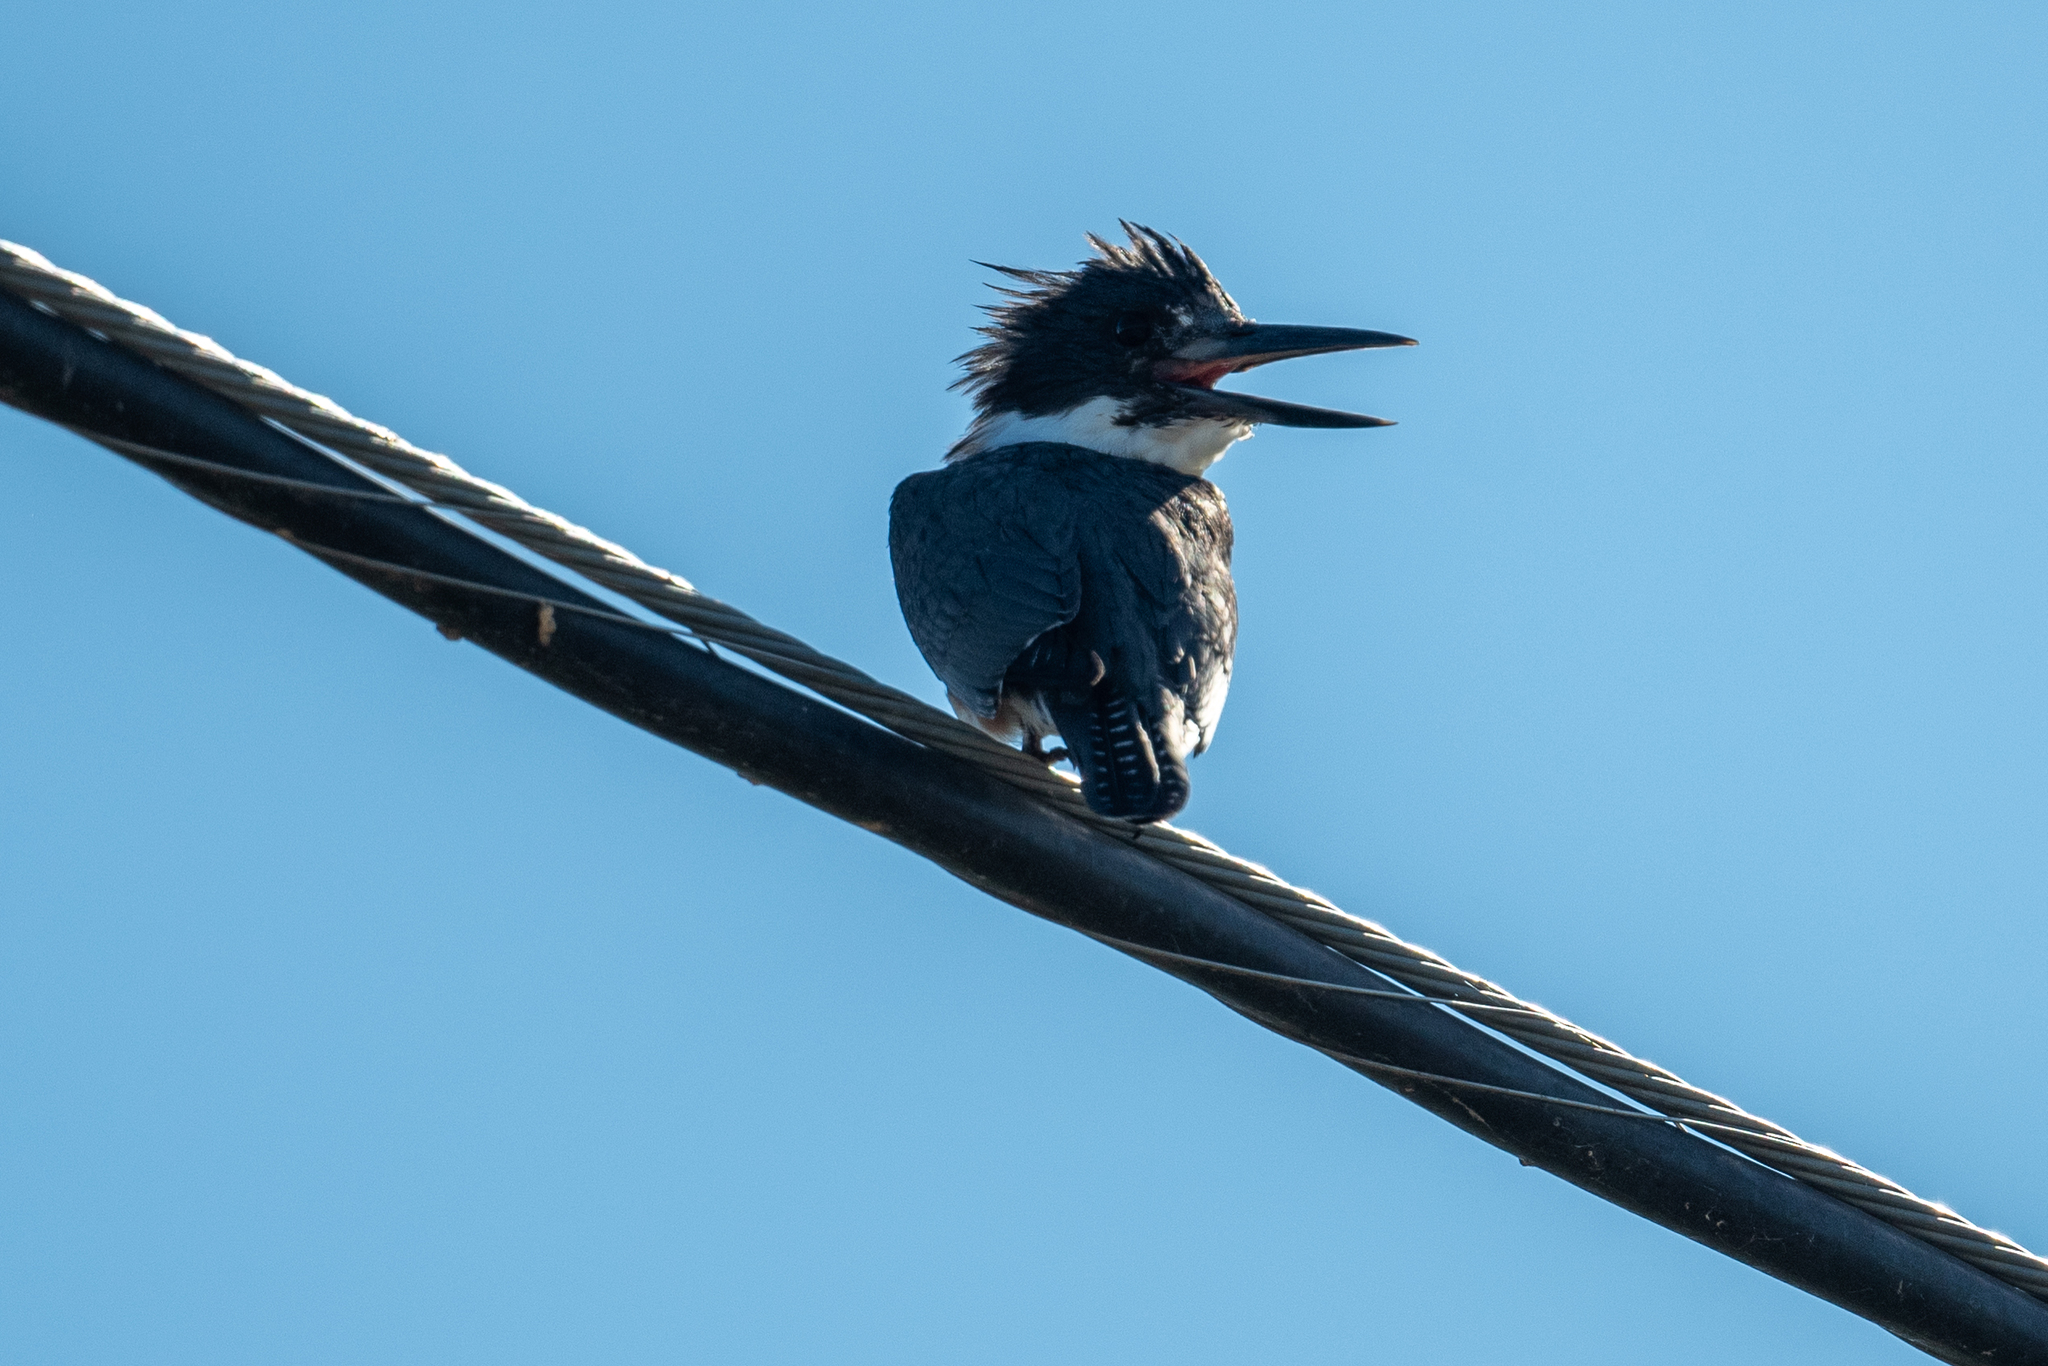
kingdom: Animalia
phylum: Chordata
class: Aves
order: Coraciiformes
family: Alcedinidae
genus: Megaceryle
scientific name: Megaceryle alcyon
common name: Belted kingfisher
